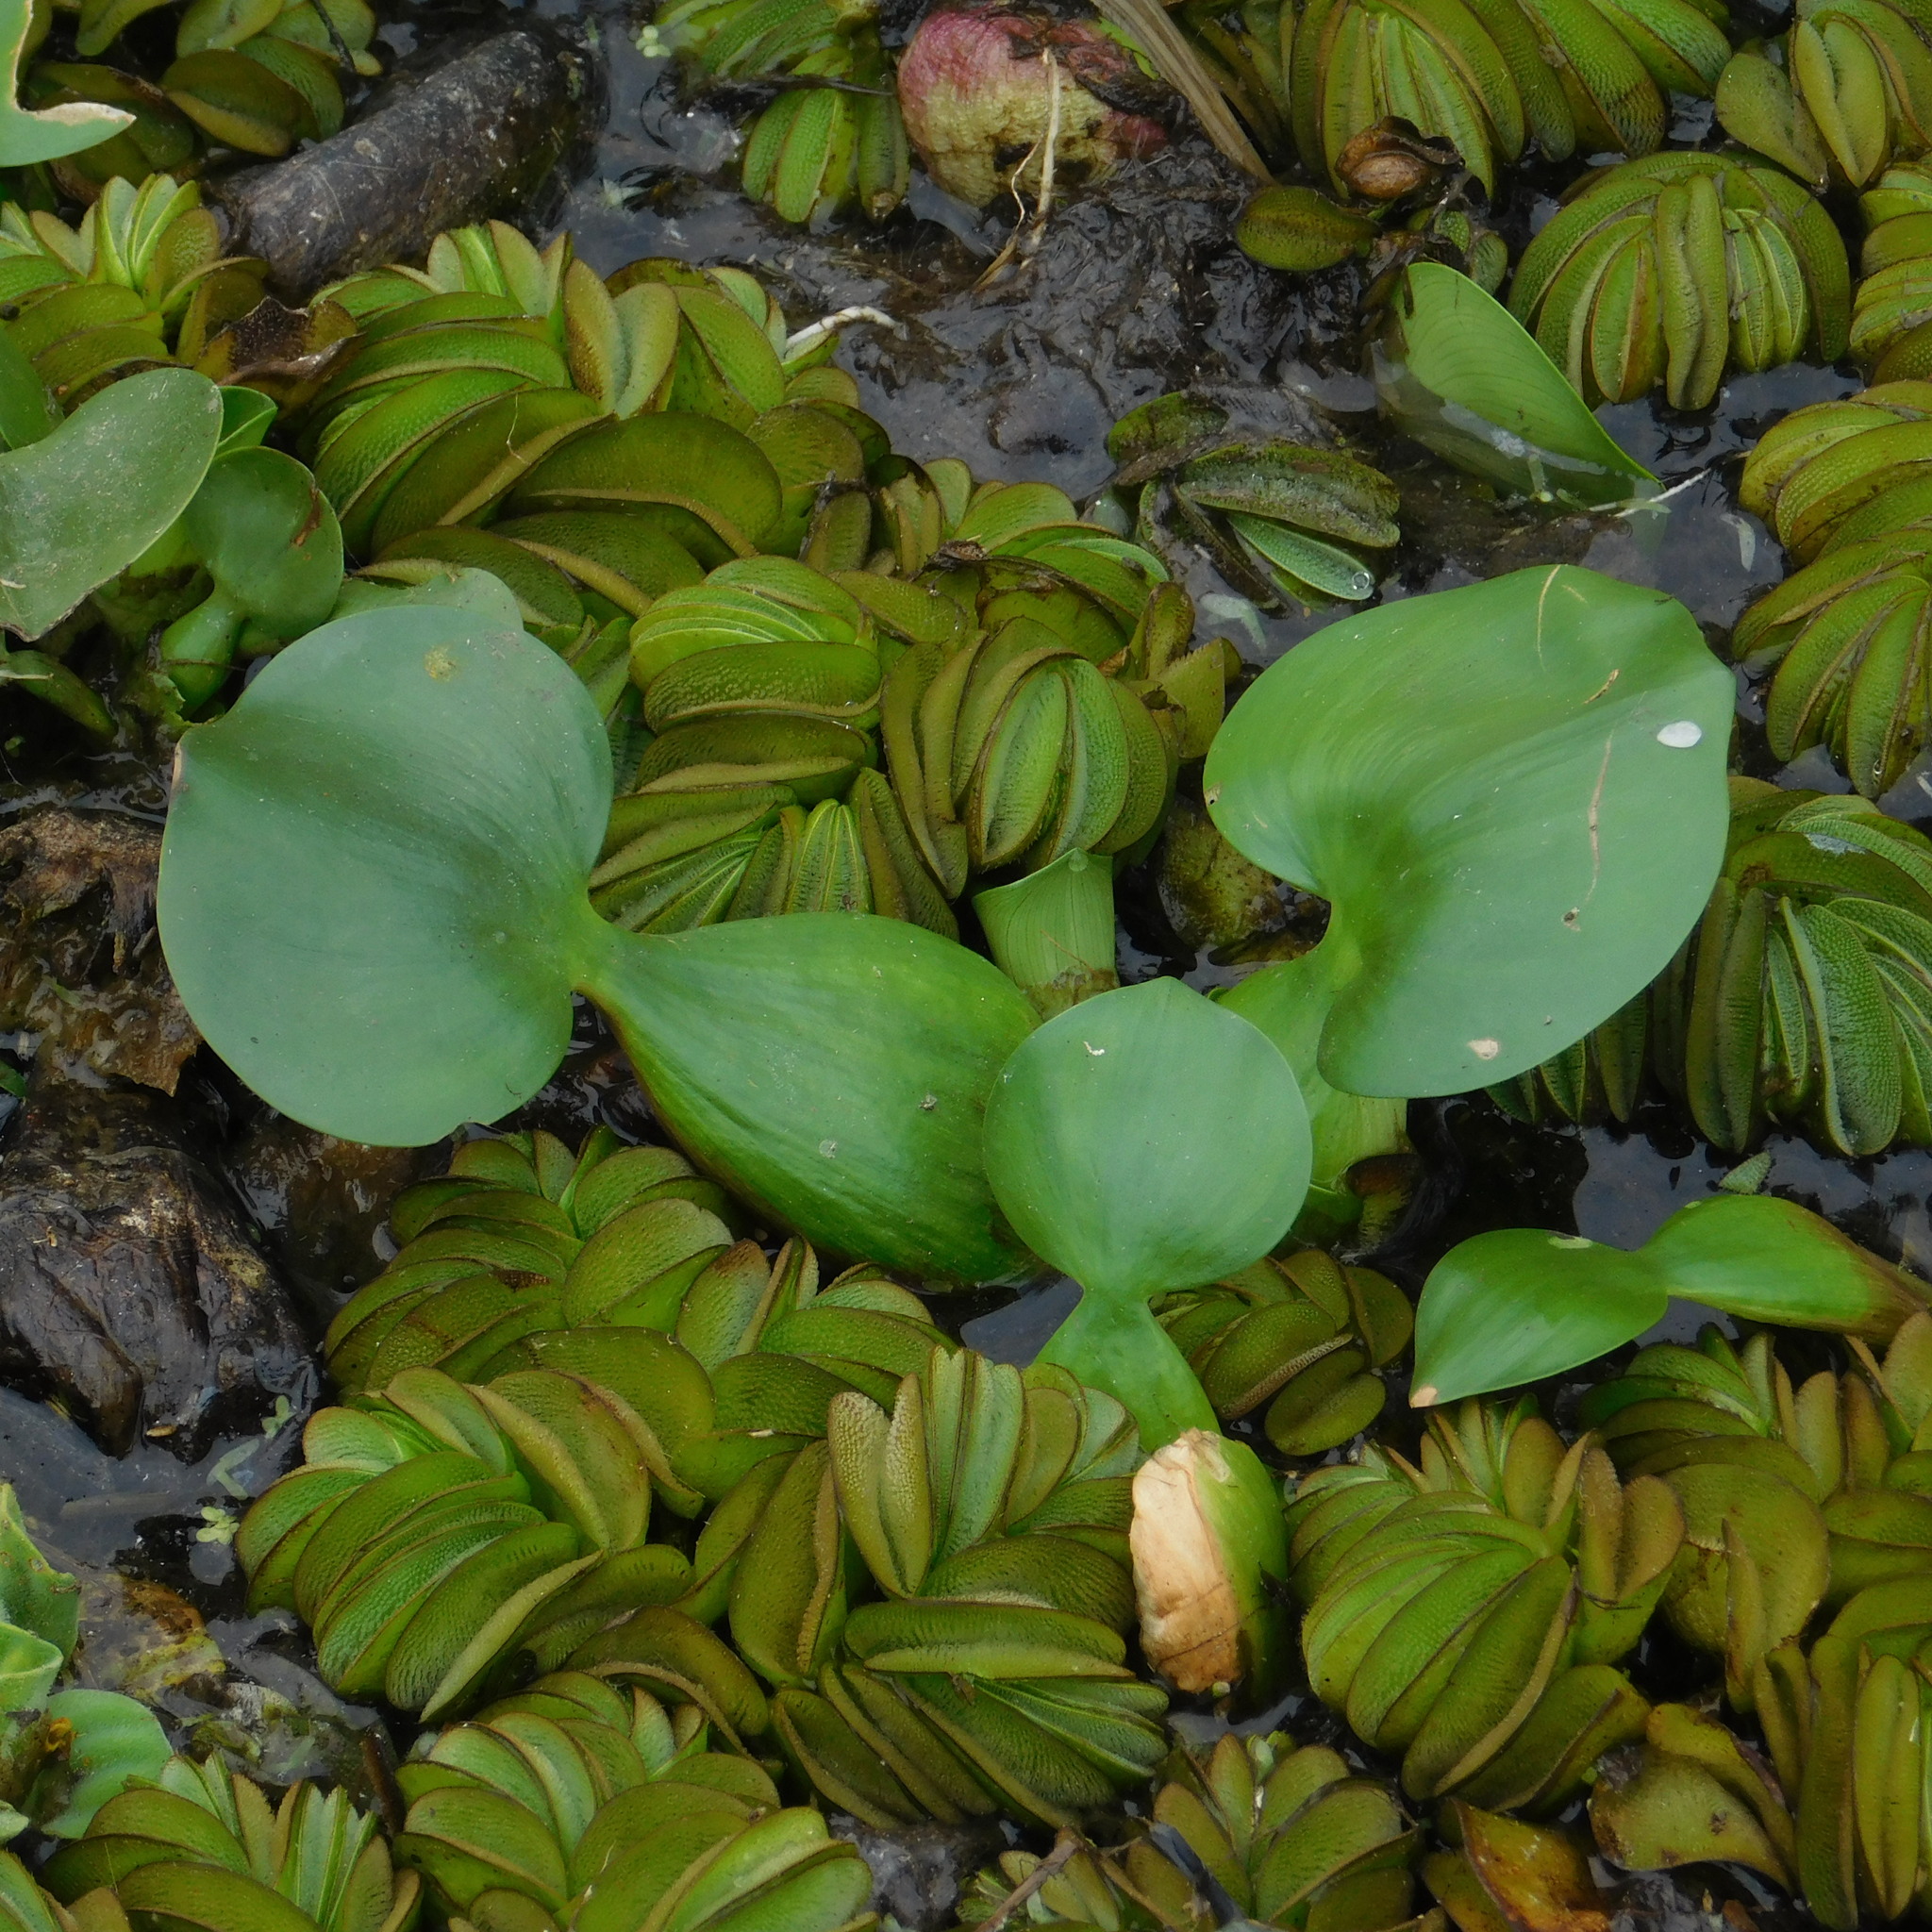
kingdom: Plantae
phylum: Tracheophyta
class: Liliopsida
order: Commelinales
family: Pontederiaceae
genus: Pontederia
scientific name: Pontederia crassipes
